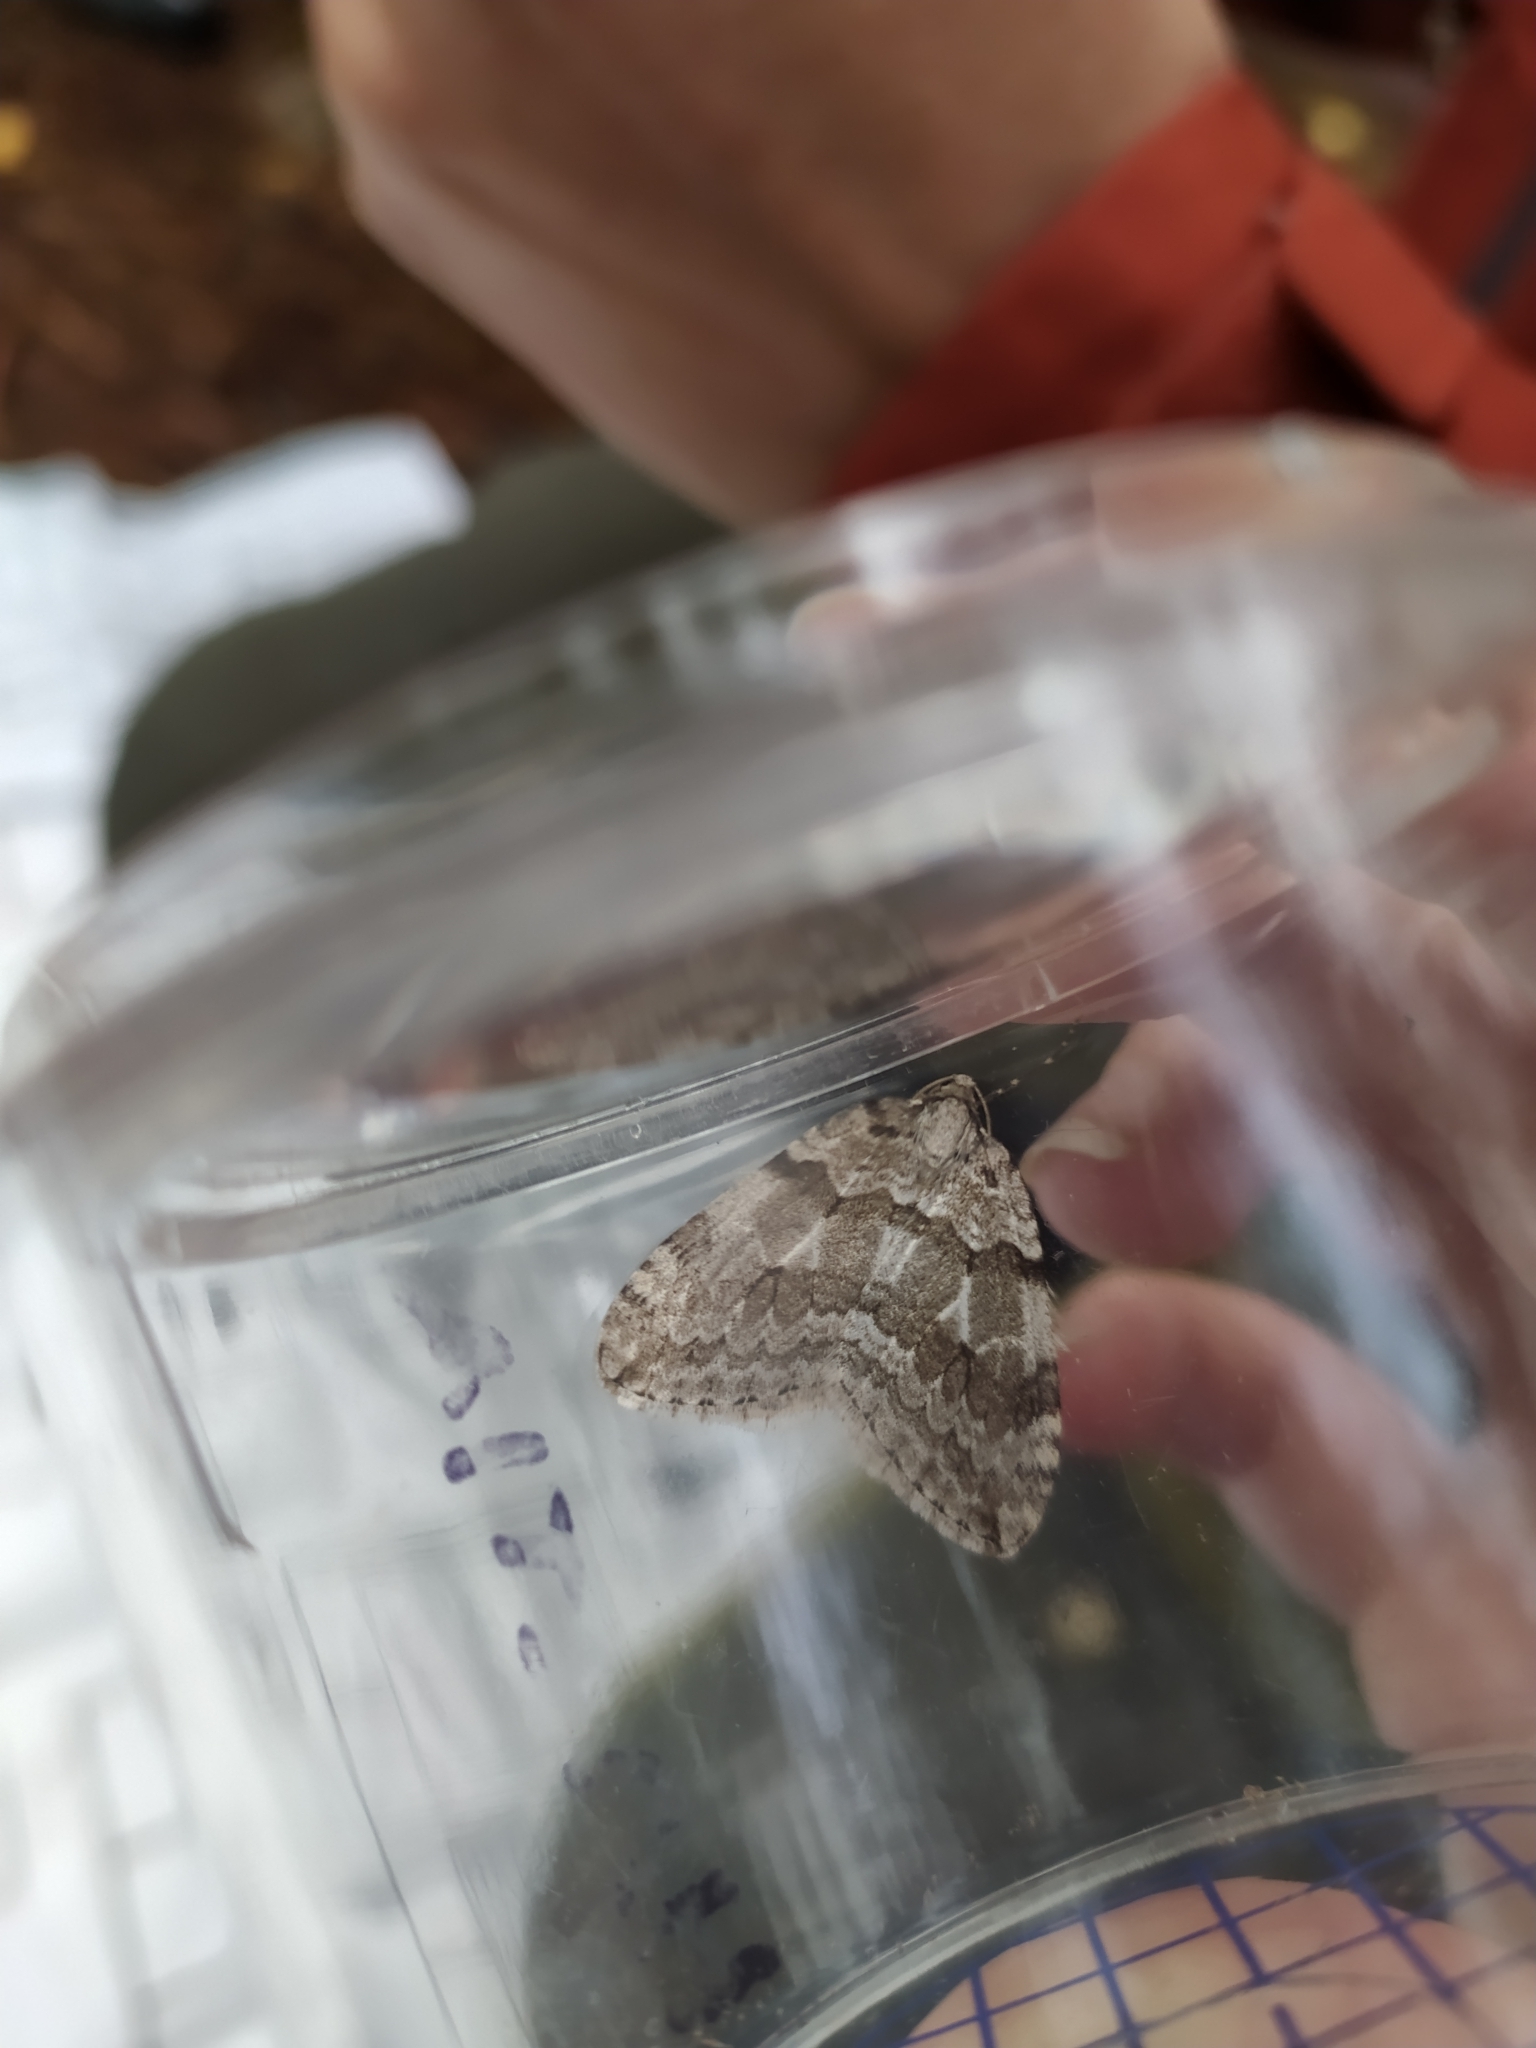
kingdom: Animalia
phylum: Arthropoda
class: Insecta
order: Lepidoptera
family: Geometridae
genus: Epirrita
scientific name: Epirrita autumnata
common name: Autumnal moth
